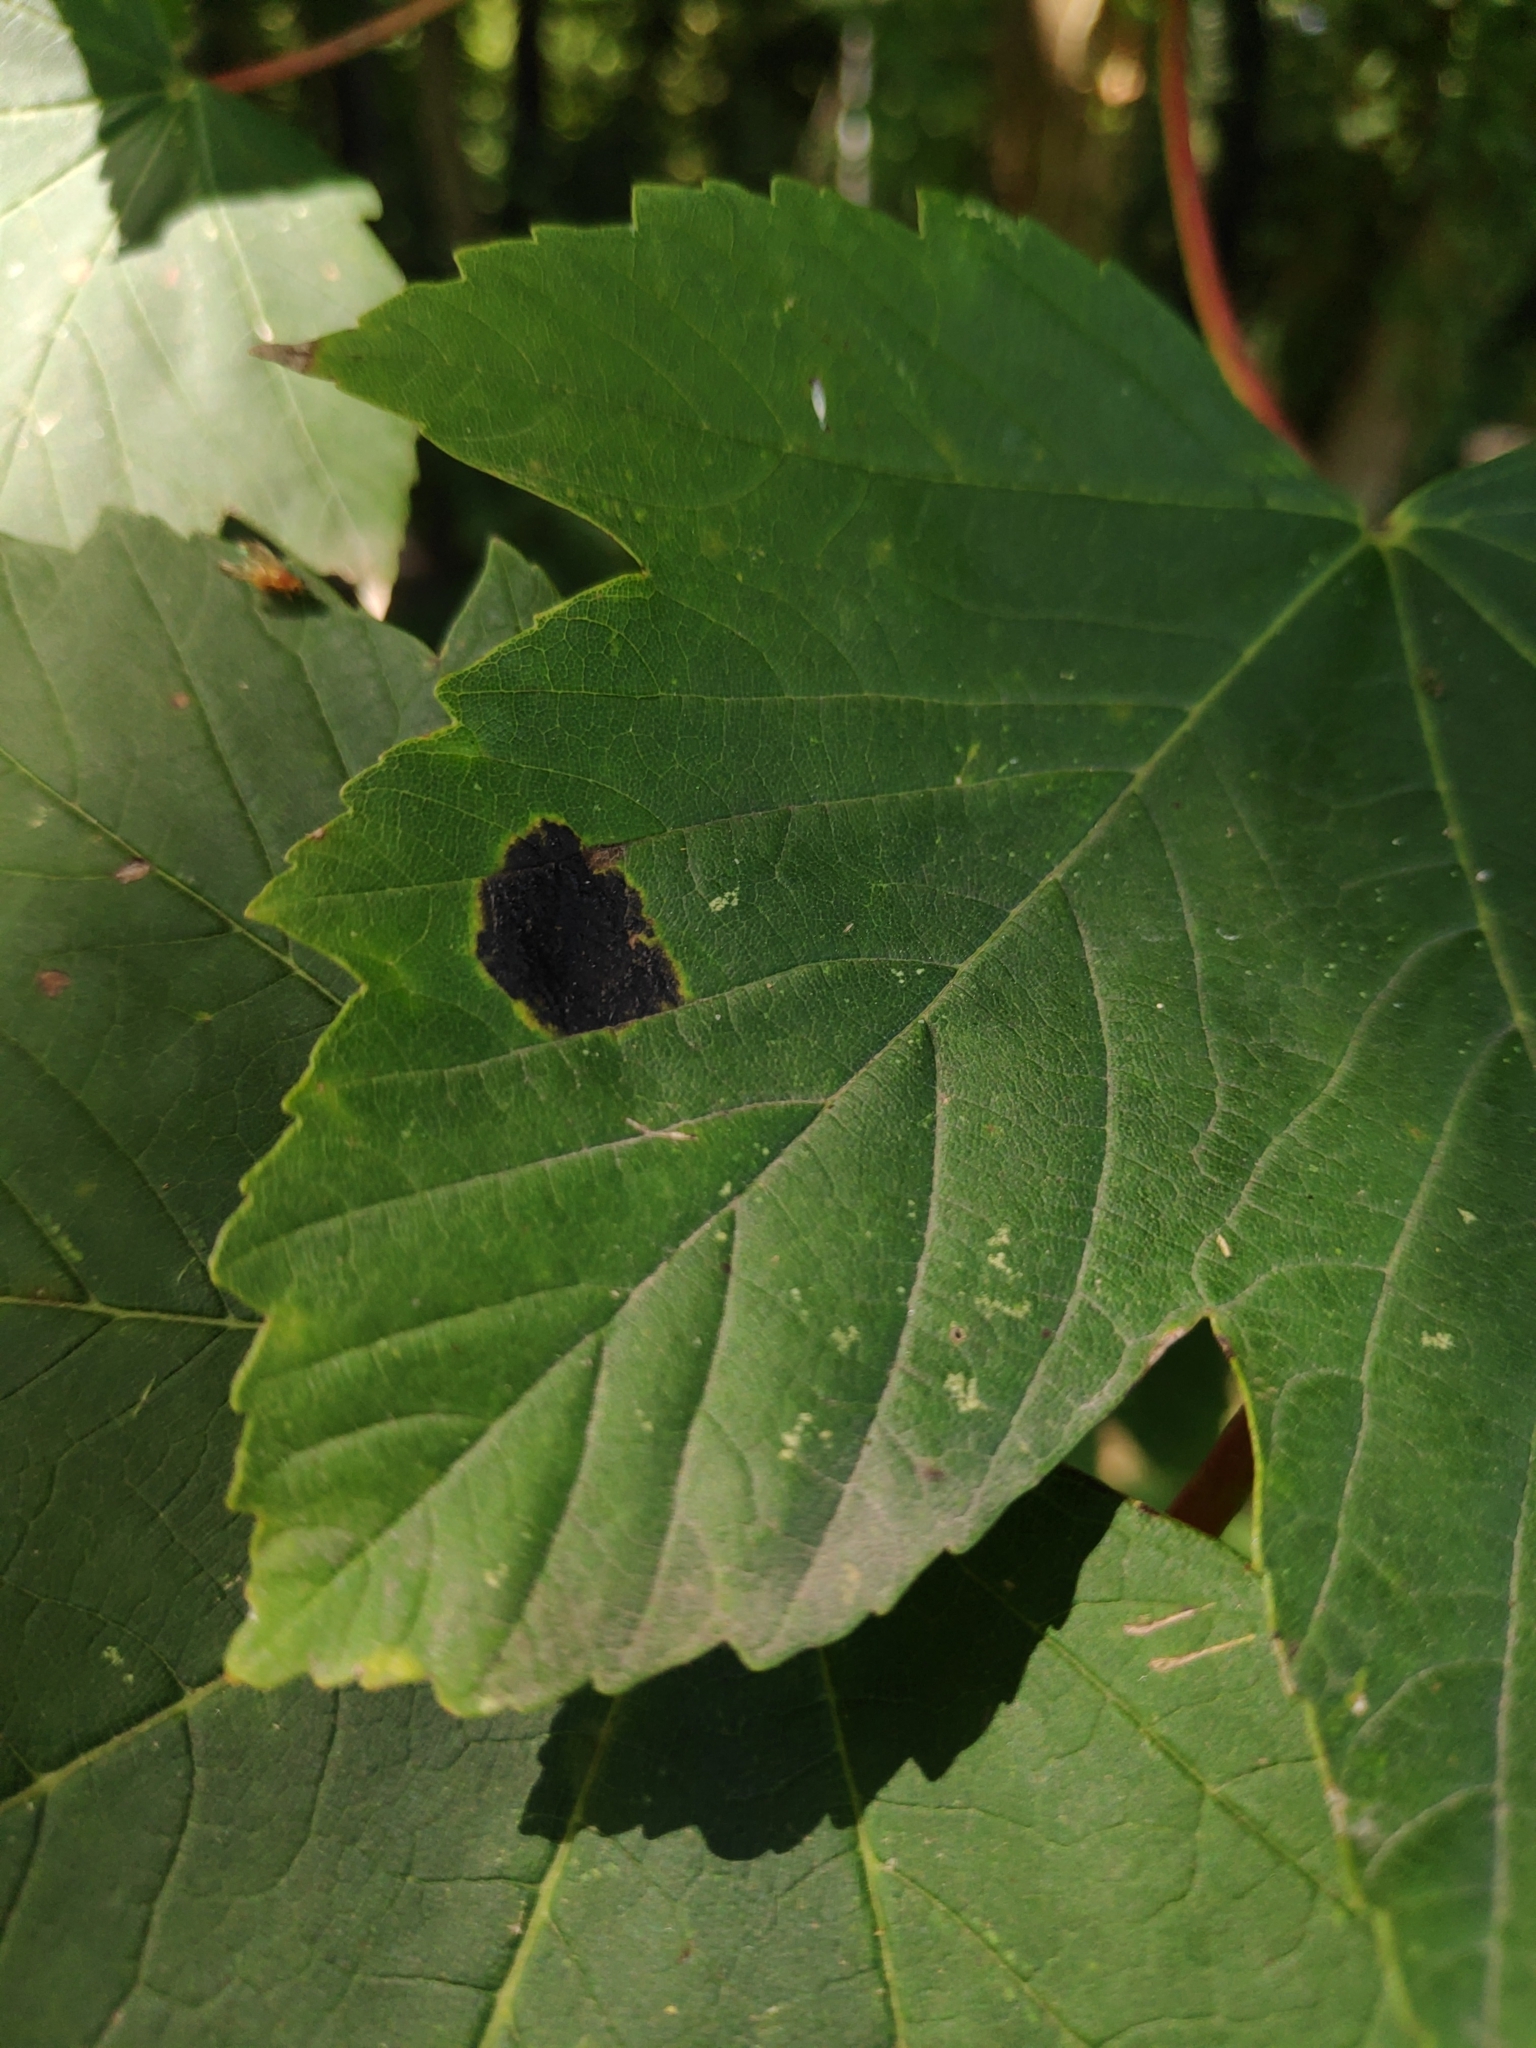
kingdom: Fungi
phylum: Ascomycota
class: Leotiomycetes
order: Rhytismatales
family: Rhytismataceae
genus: Rhytisma
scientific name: Rhytisma acerinum
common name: European tar spot
